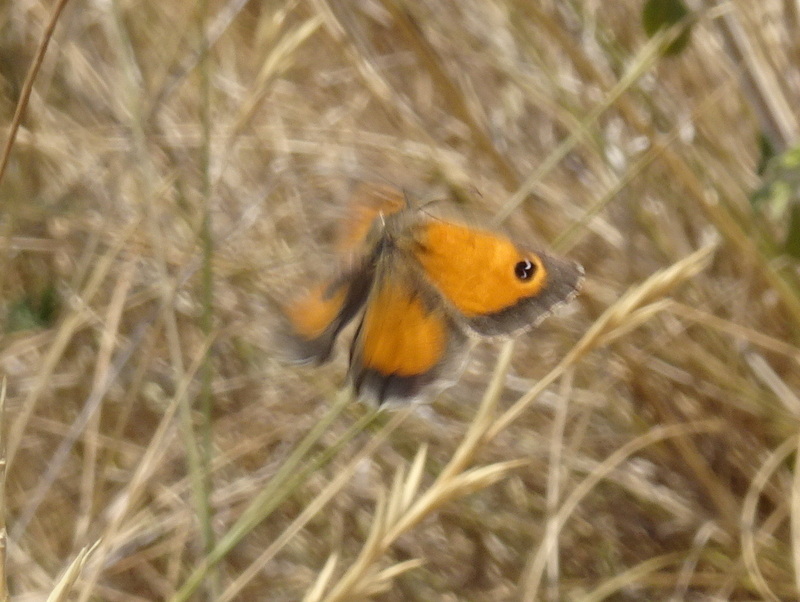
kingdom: Animalia
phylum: Arthropoda
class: Insecta
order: Lepidoptera
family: Nymphalidae
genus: Pyronia
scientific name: Pyronia cecilia
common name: Southern gatekeeper
